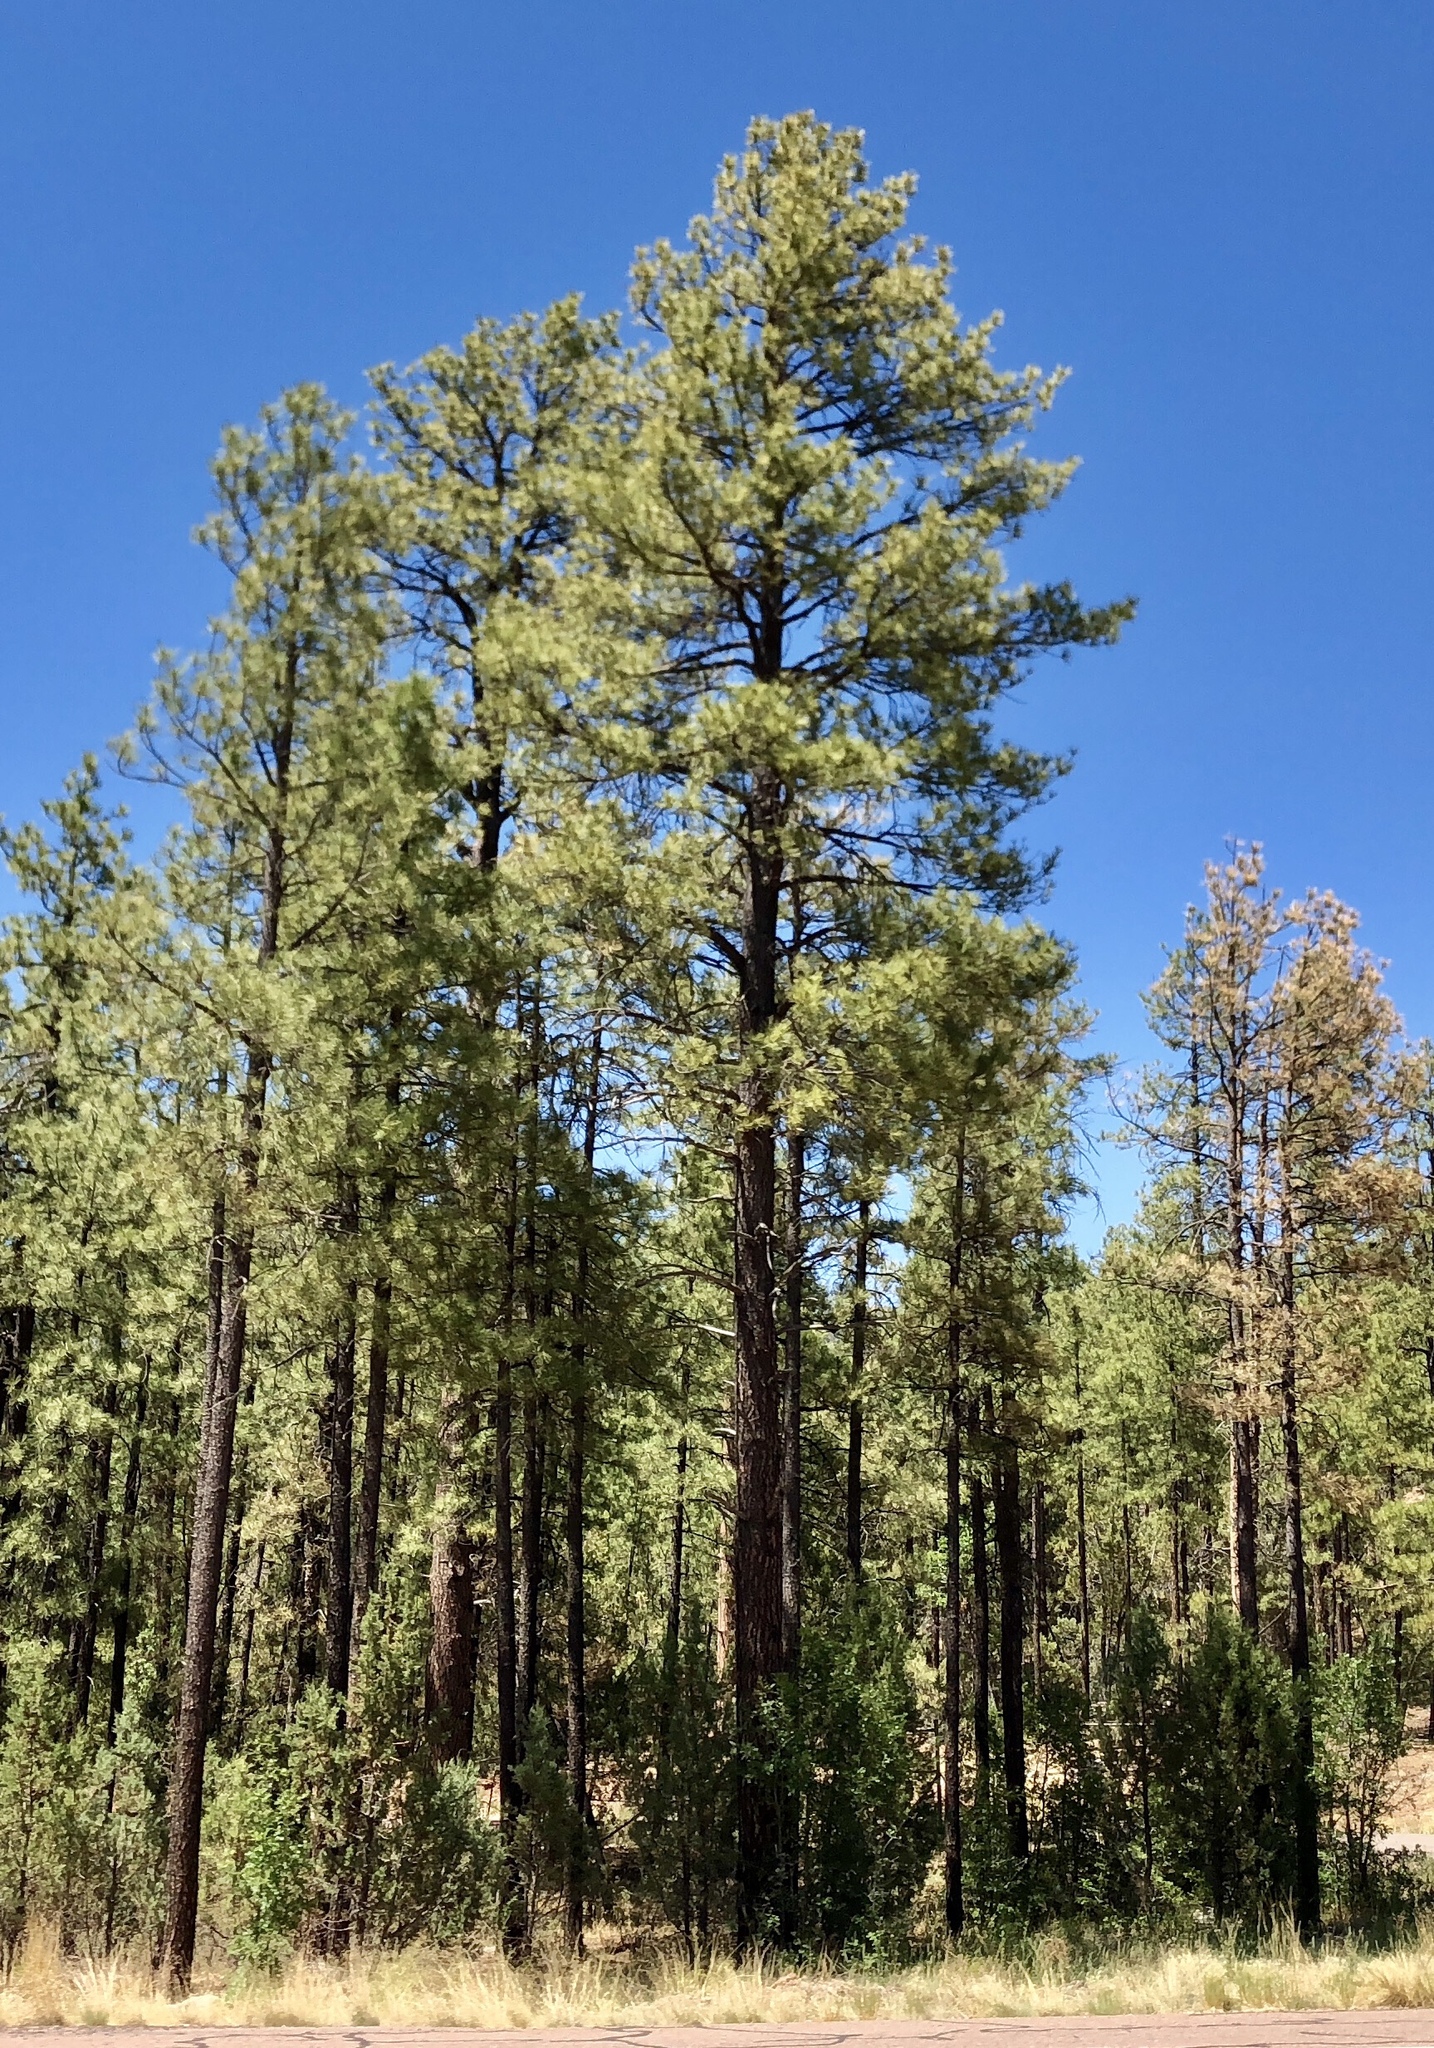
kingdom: Plantae
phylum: Tracheophyta
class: Pinopsida
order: Pinales
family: Pinaceae
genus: Pinus
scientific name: Pinus ponderosa
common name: Western yellow-pine
